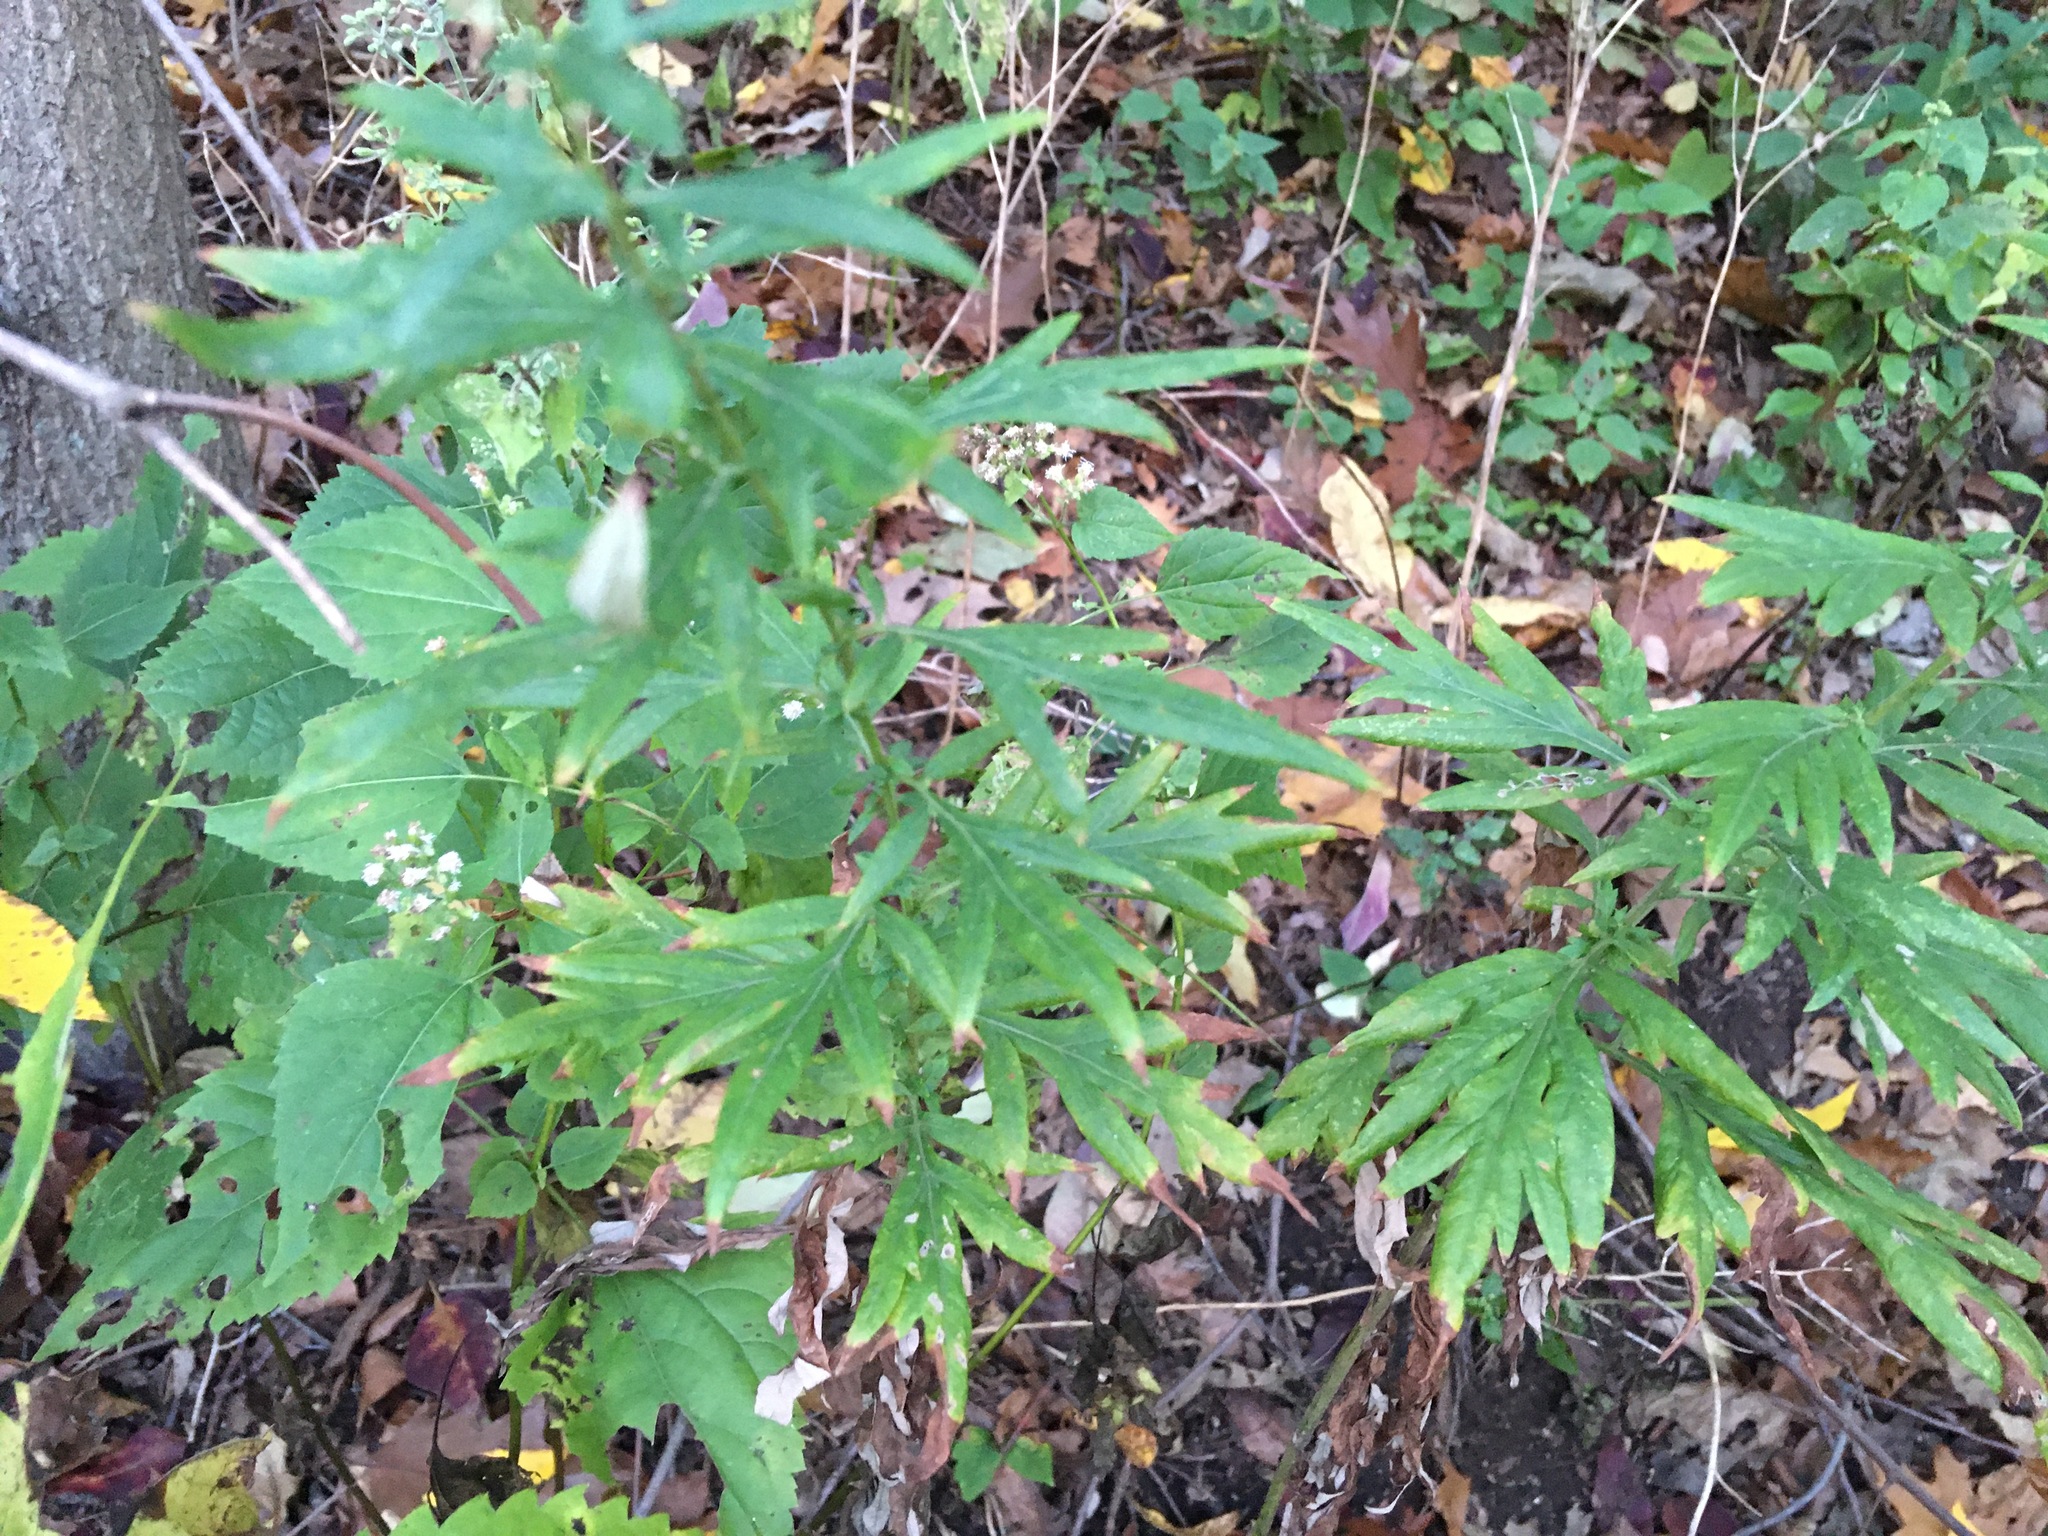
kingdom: Plantae
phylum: Tracheophyta
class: Magnoliopsida
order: Asterales
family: Asteraceae
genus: Artemisia
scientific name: Artemisia vulgaris
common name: Mugwort
